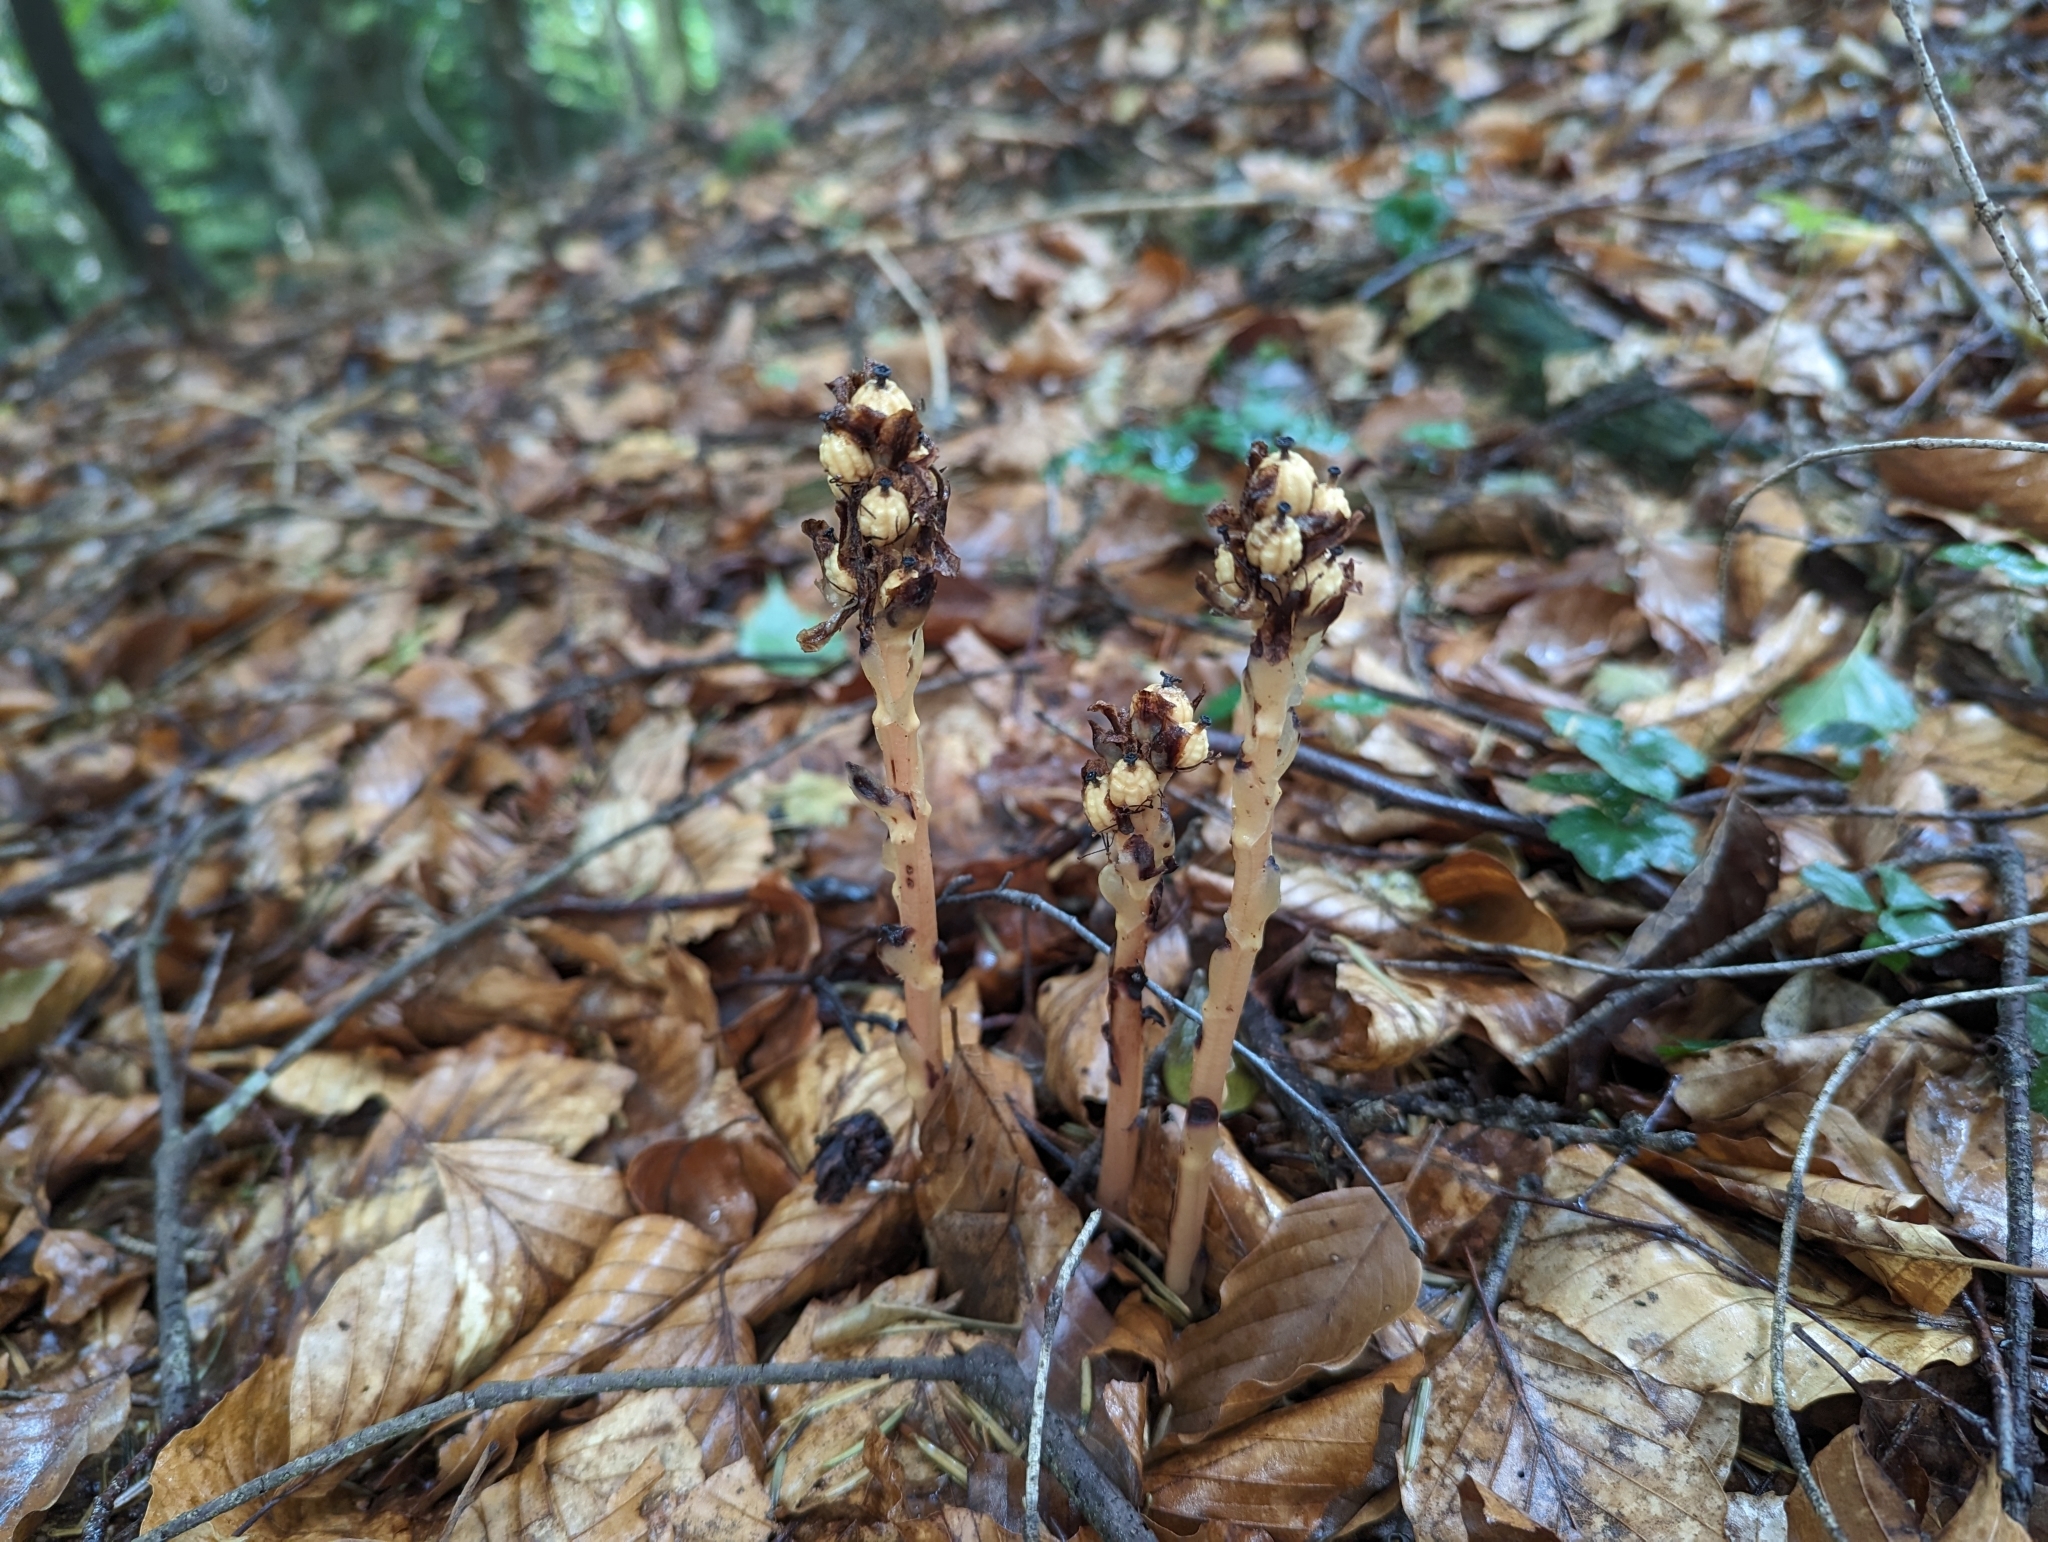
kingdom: Plantae
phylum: Tracheophyta
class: Magnoliopsida
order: Ericales
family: Ericaceae
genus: Hypopitys
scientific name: Hypopitys monotropa
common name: Yellow bird's-nest
